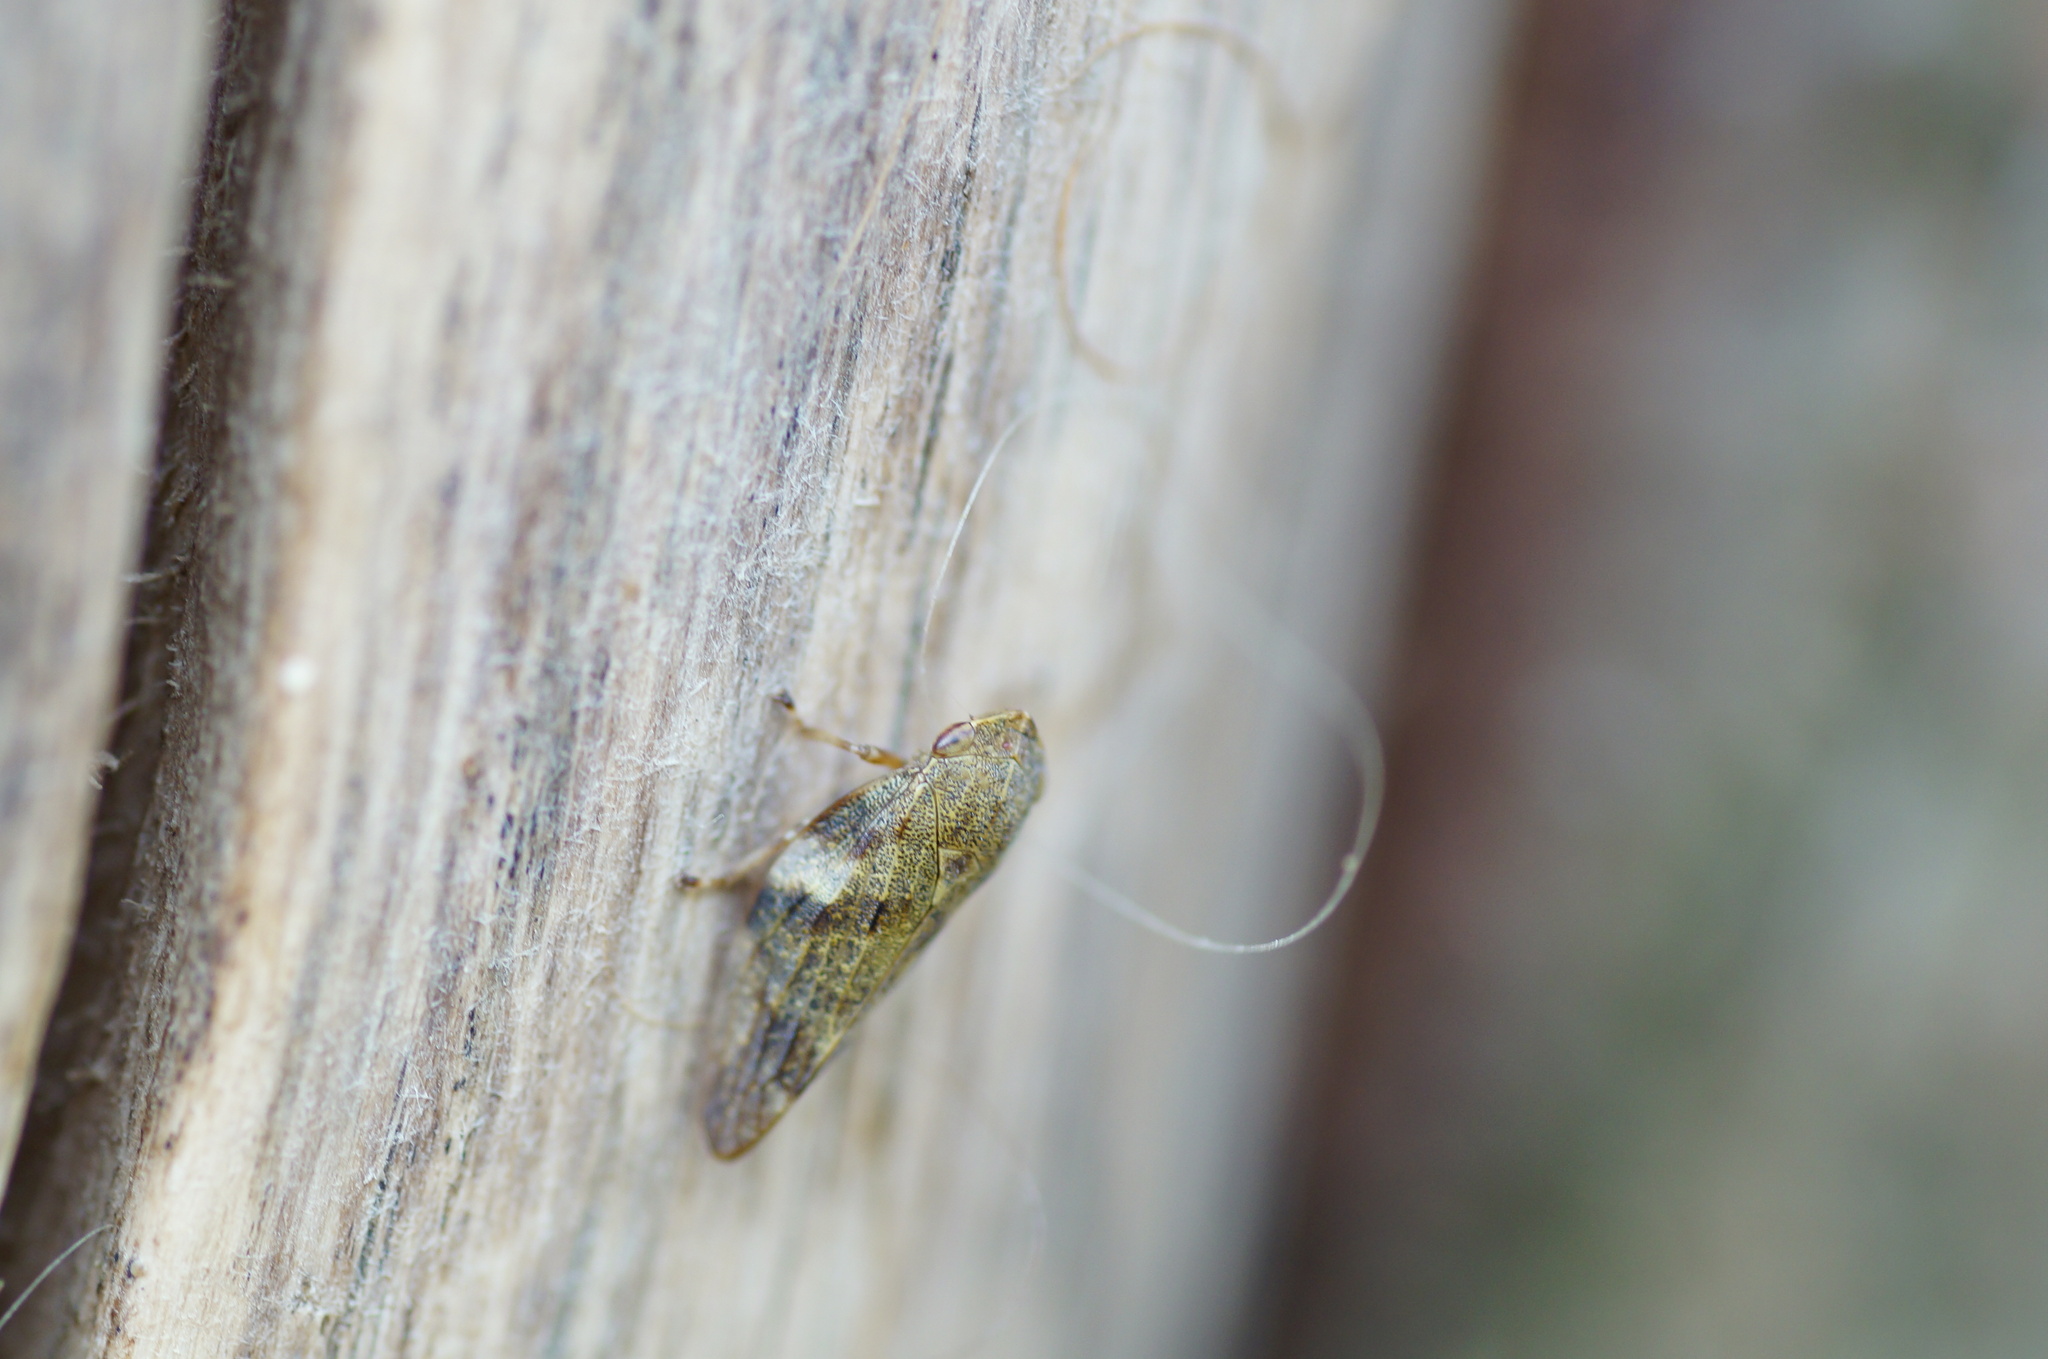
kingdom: Animalia
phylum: Arthropoda
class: Insecta
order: Hemiptera
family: Aphrophoridae
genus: Aphrophora
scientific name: Aphrophora alni
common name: European alder spittlebug
